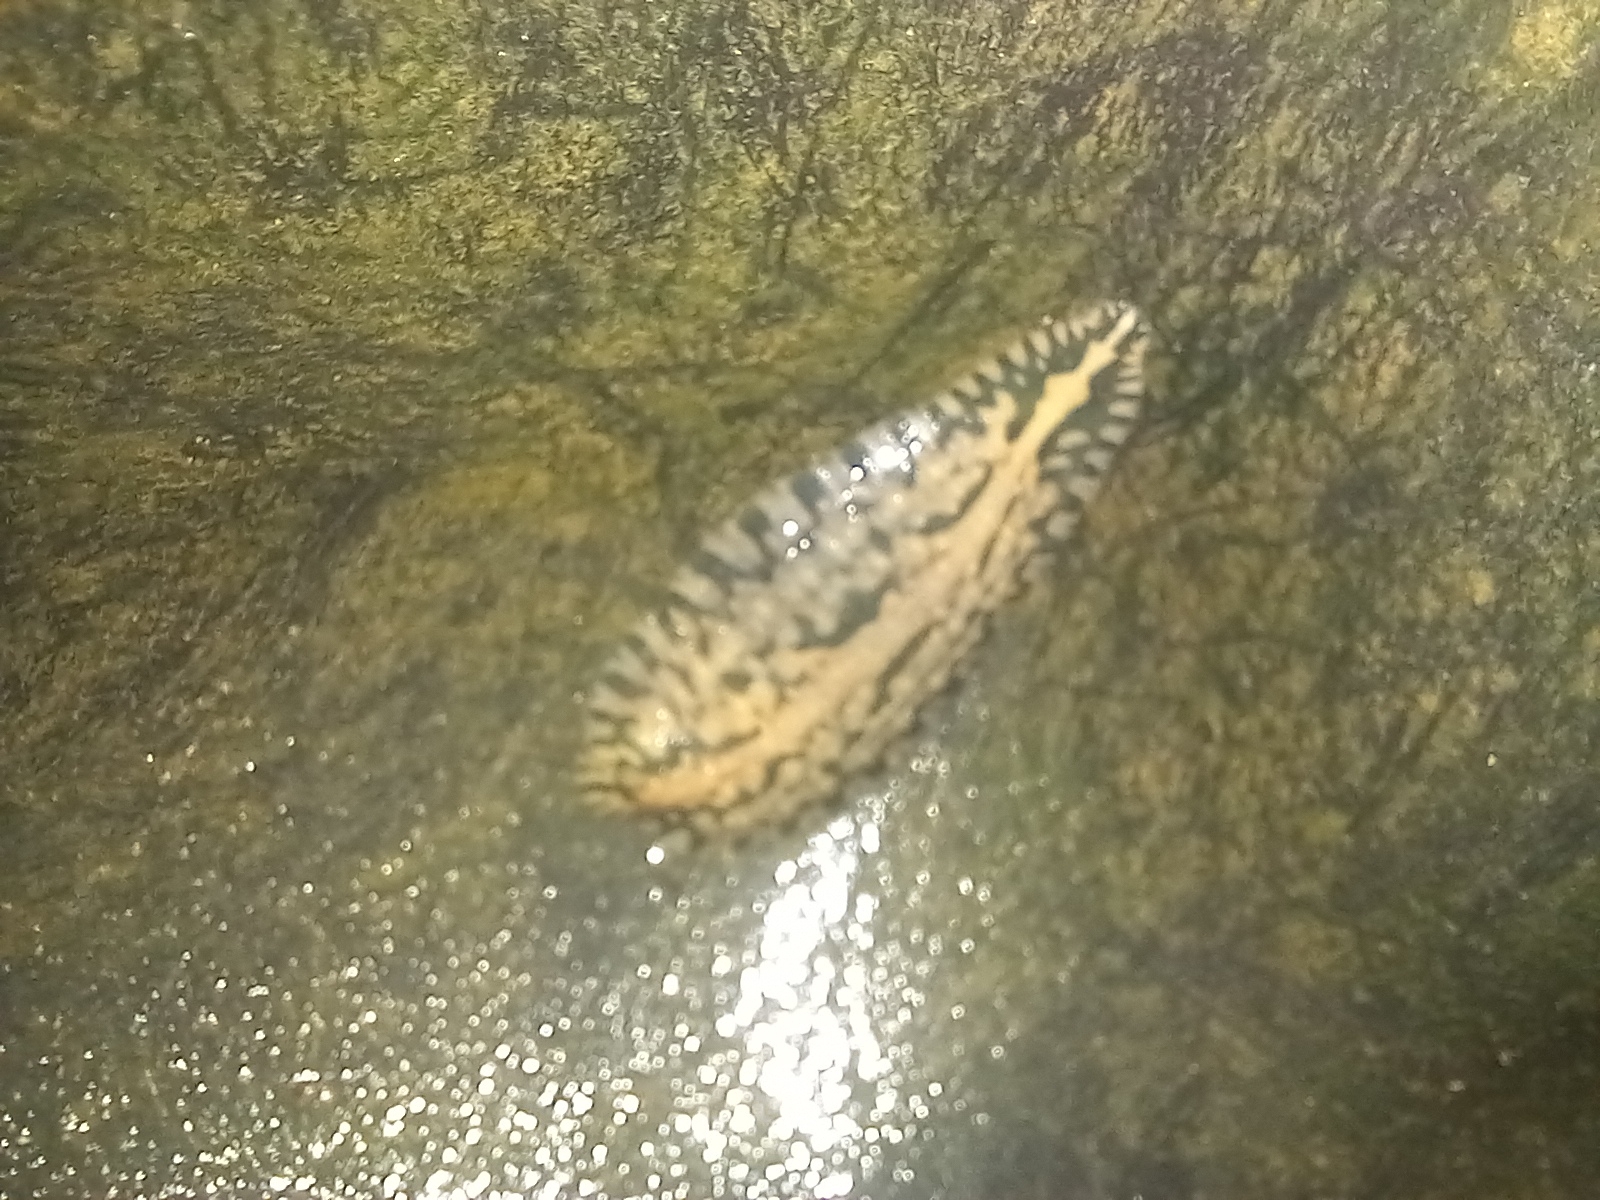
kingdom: Animalia
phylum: Annelida
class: Clitellata
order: Rhynchobdellida
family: Glossiphoniidae
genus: Placobdella
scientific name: Placobdella parasitica
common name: Smooth turtle leech
